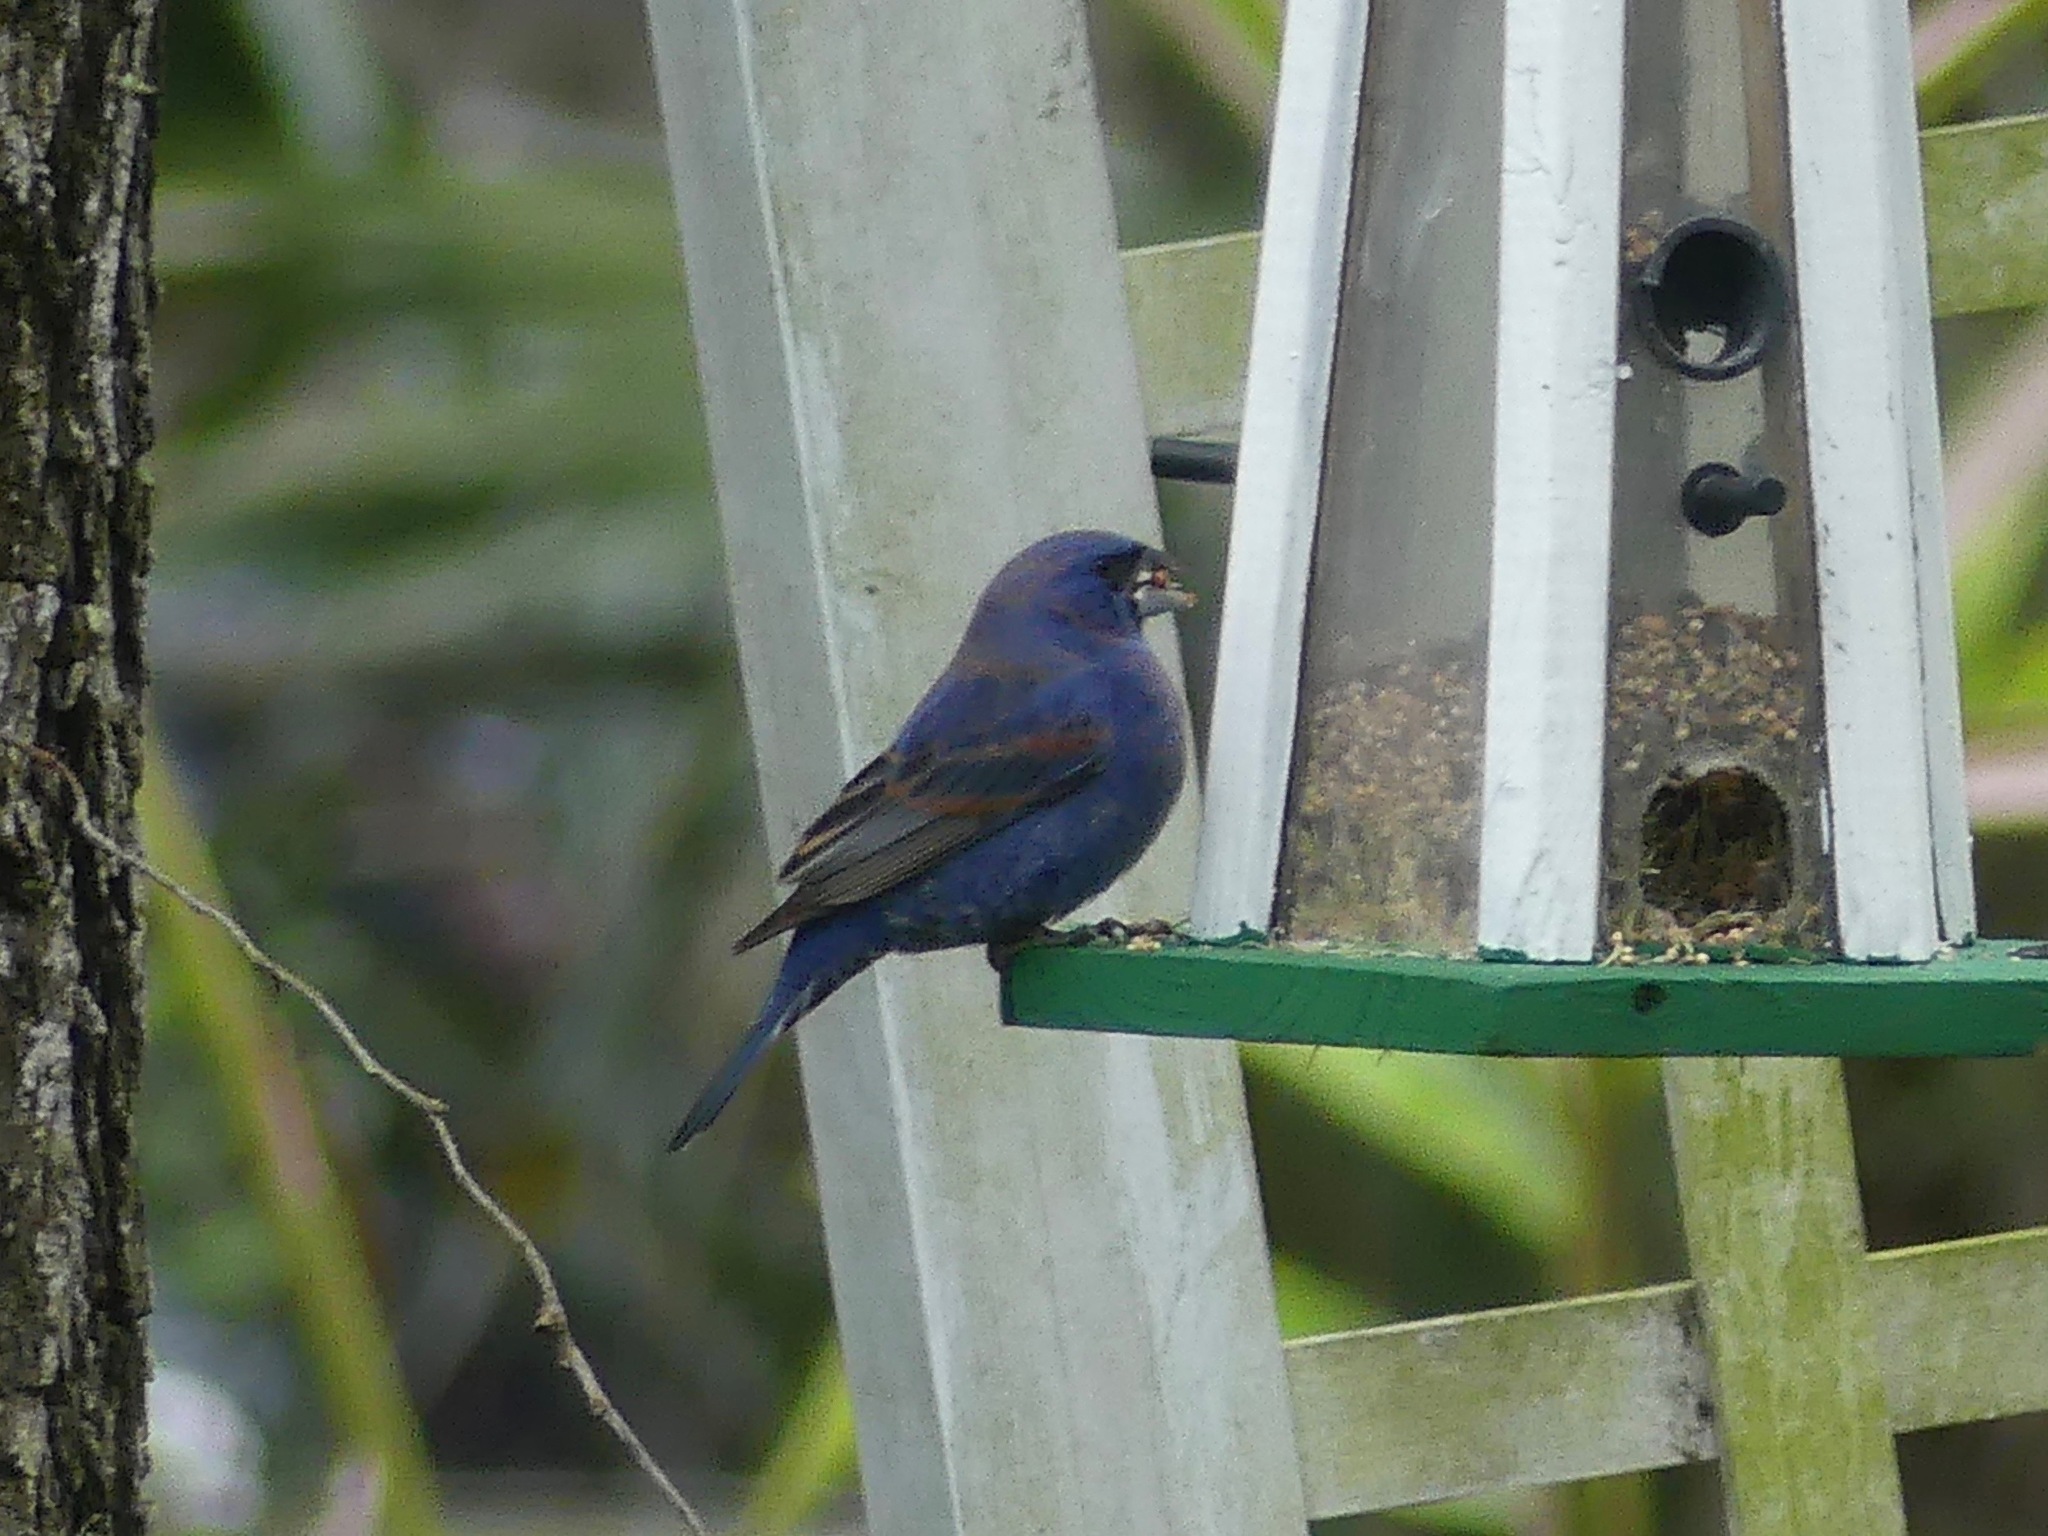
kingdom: Animalia
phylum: Chordata
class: Aves
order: Passeriformes
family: Cardinalidae
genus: Passerina
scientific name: Passerina caerulea
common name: Blue grosbeak
